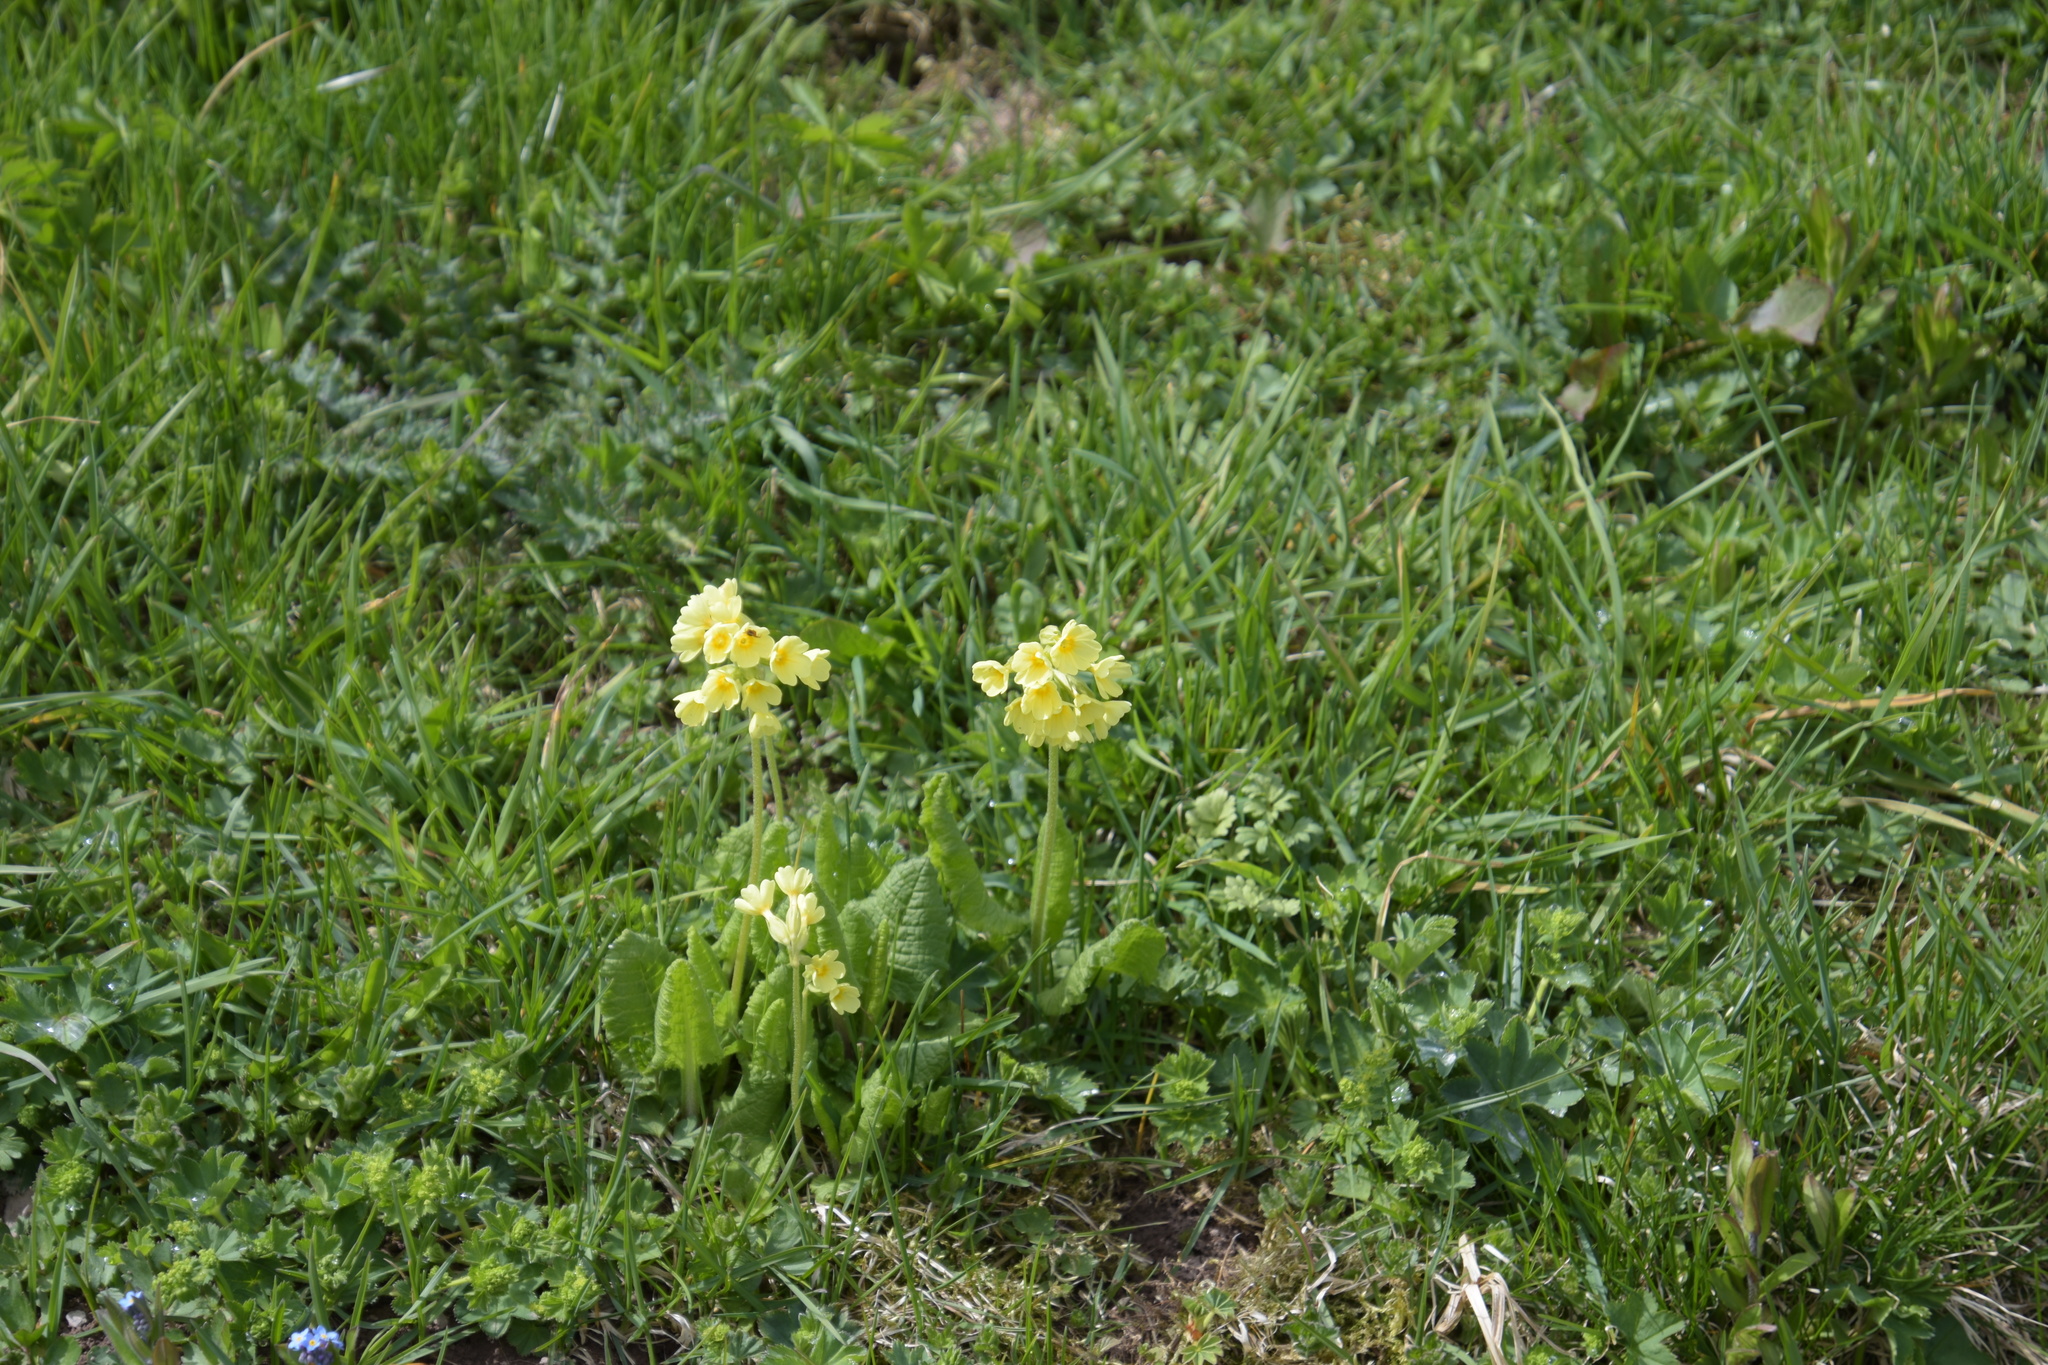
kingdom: Plantae
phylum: Tracheophyta
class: Magnoliopsida
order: Ericales
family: Primulaceae
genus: Primula
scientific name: Primula elatior
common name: Oxlip
